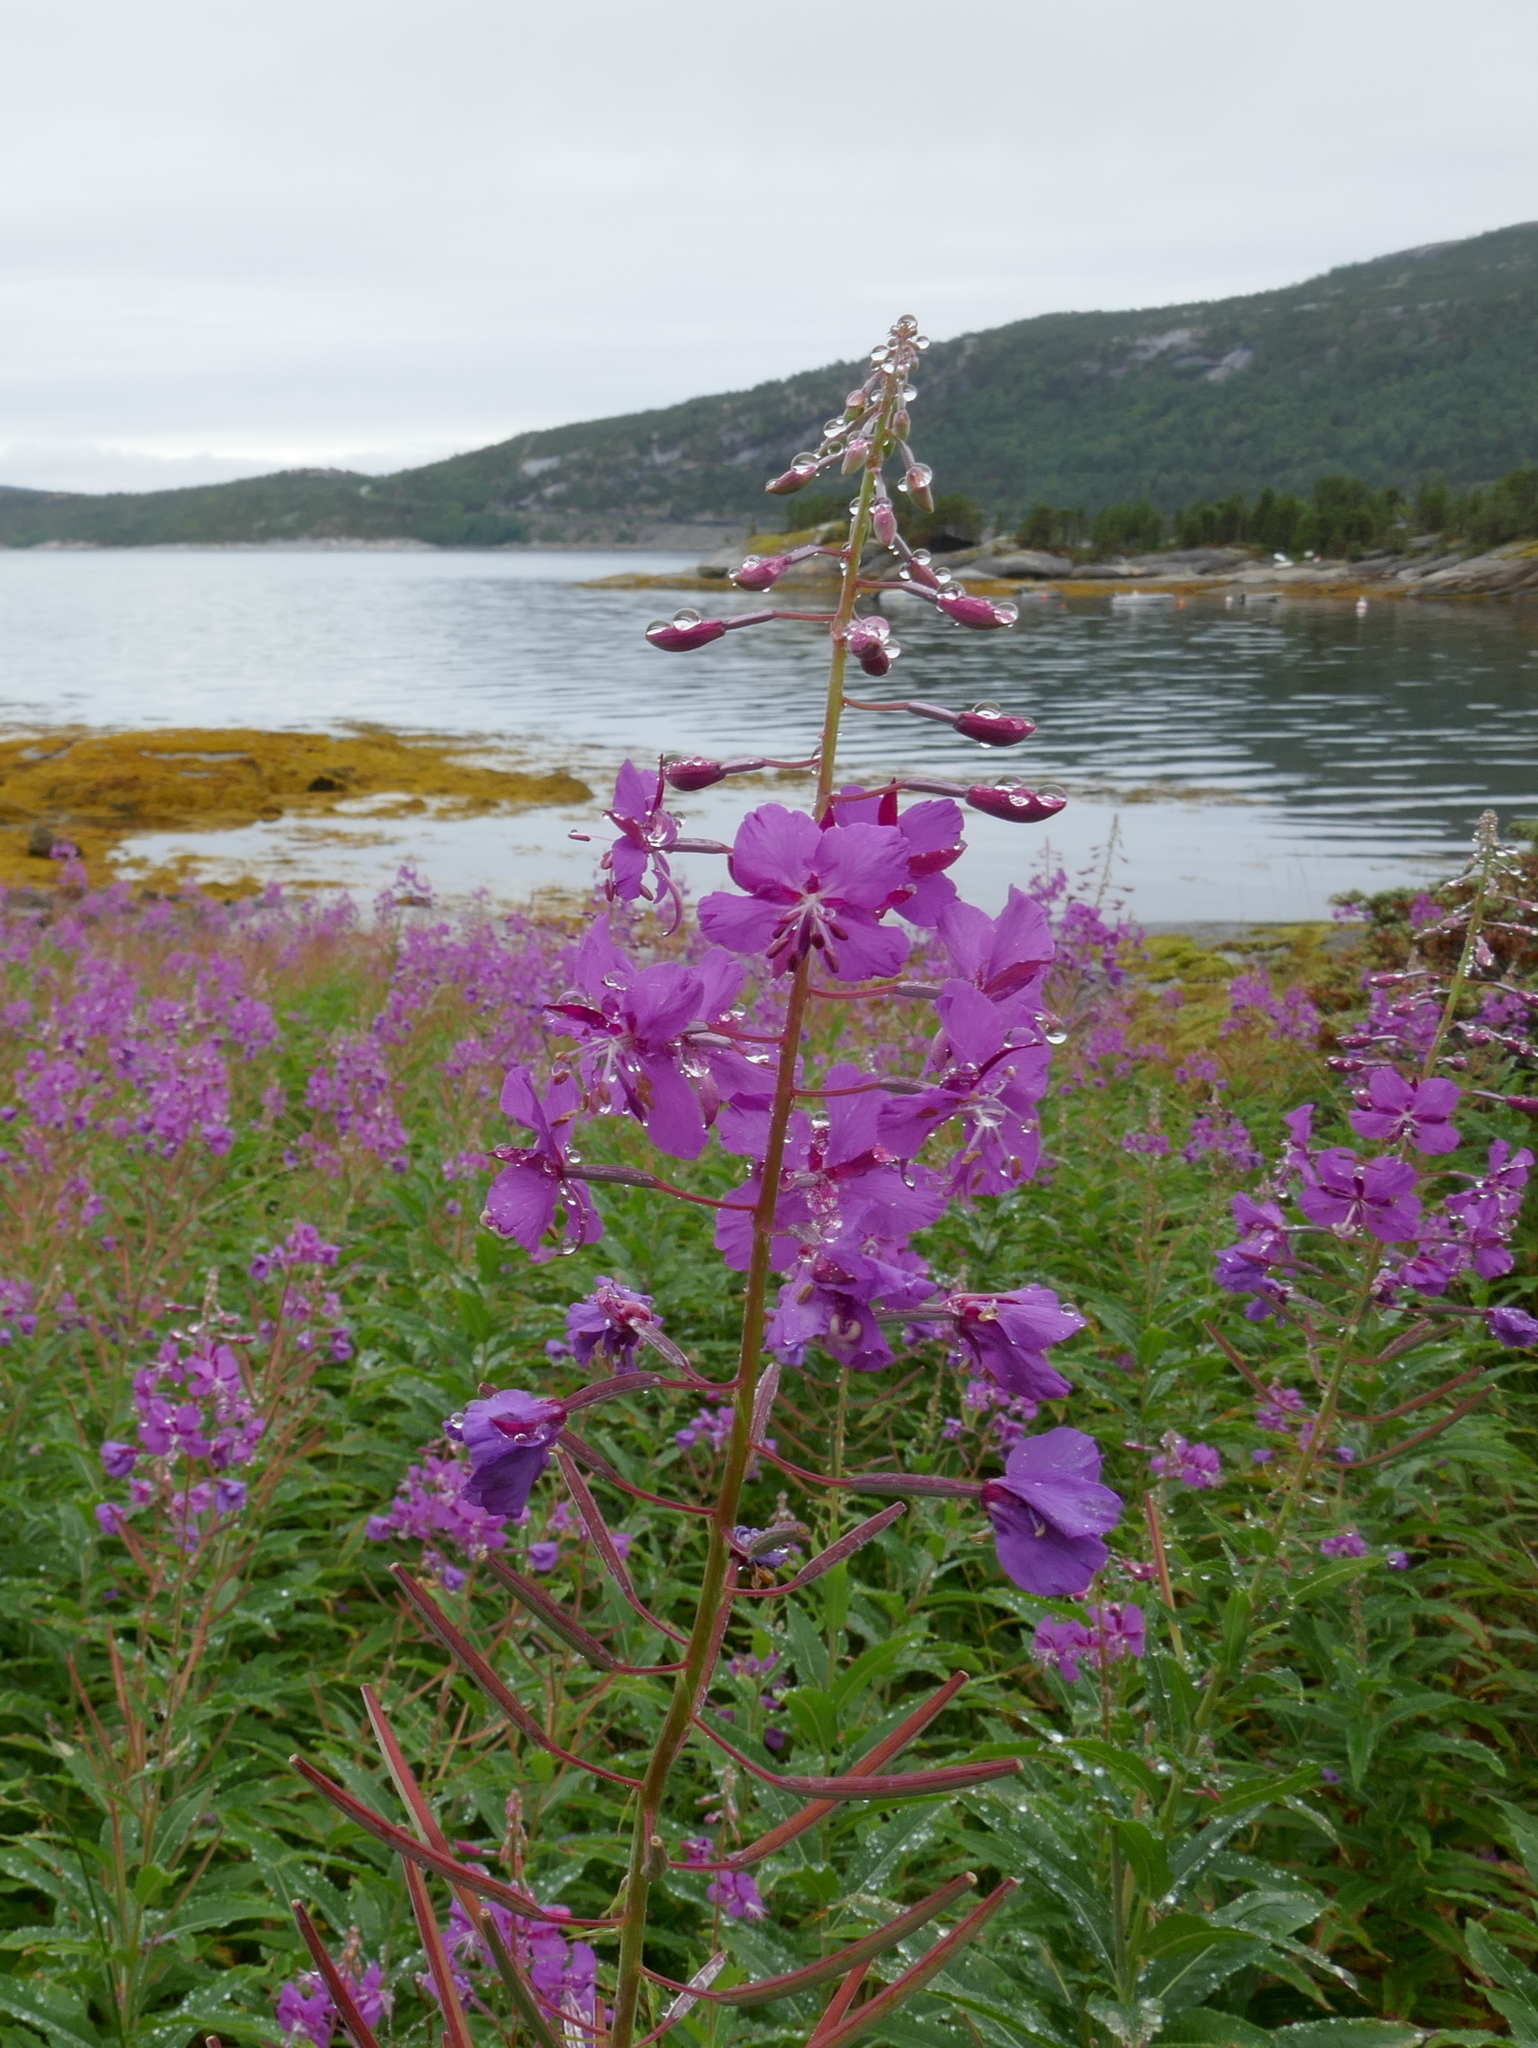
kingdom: Plantae
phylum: Tracheophyta
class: Magnoliopsida
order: Myrtales
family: Onagraceae
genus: Chamaenerion
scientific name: Chamaenerion angustifolium
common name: Fireweed
